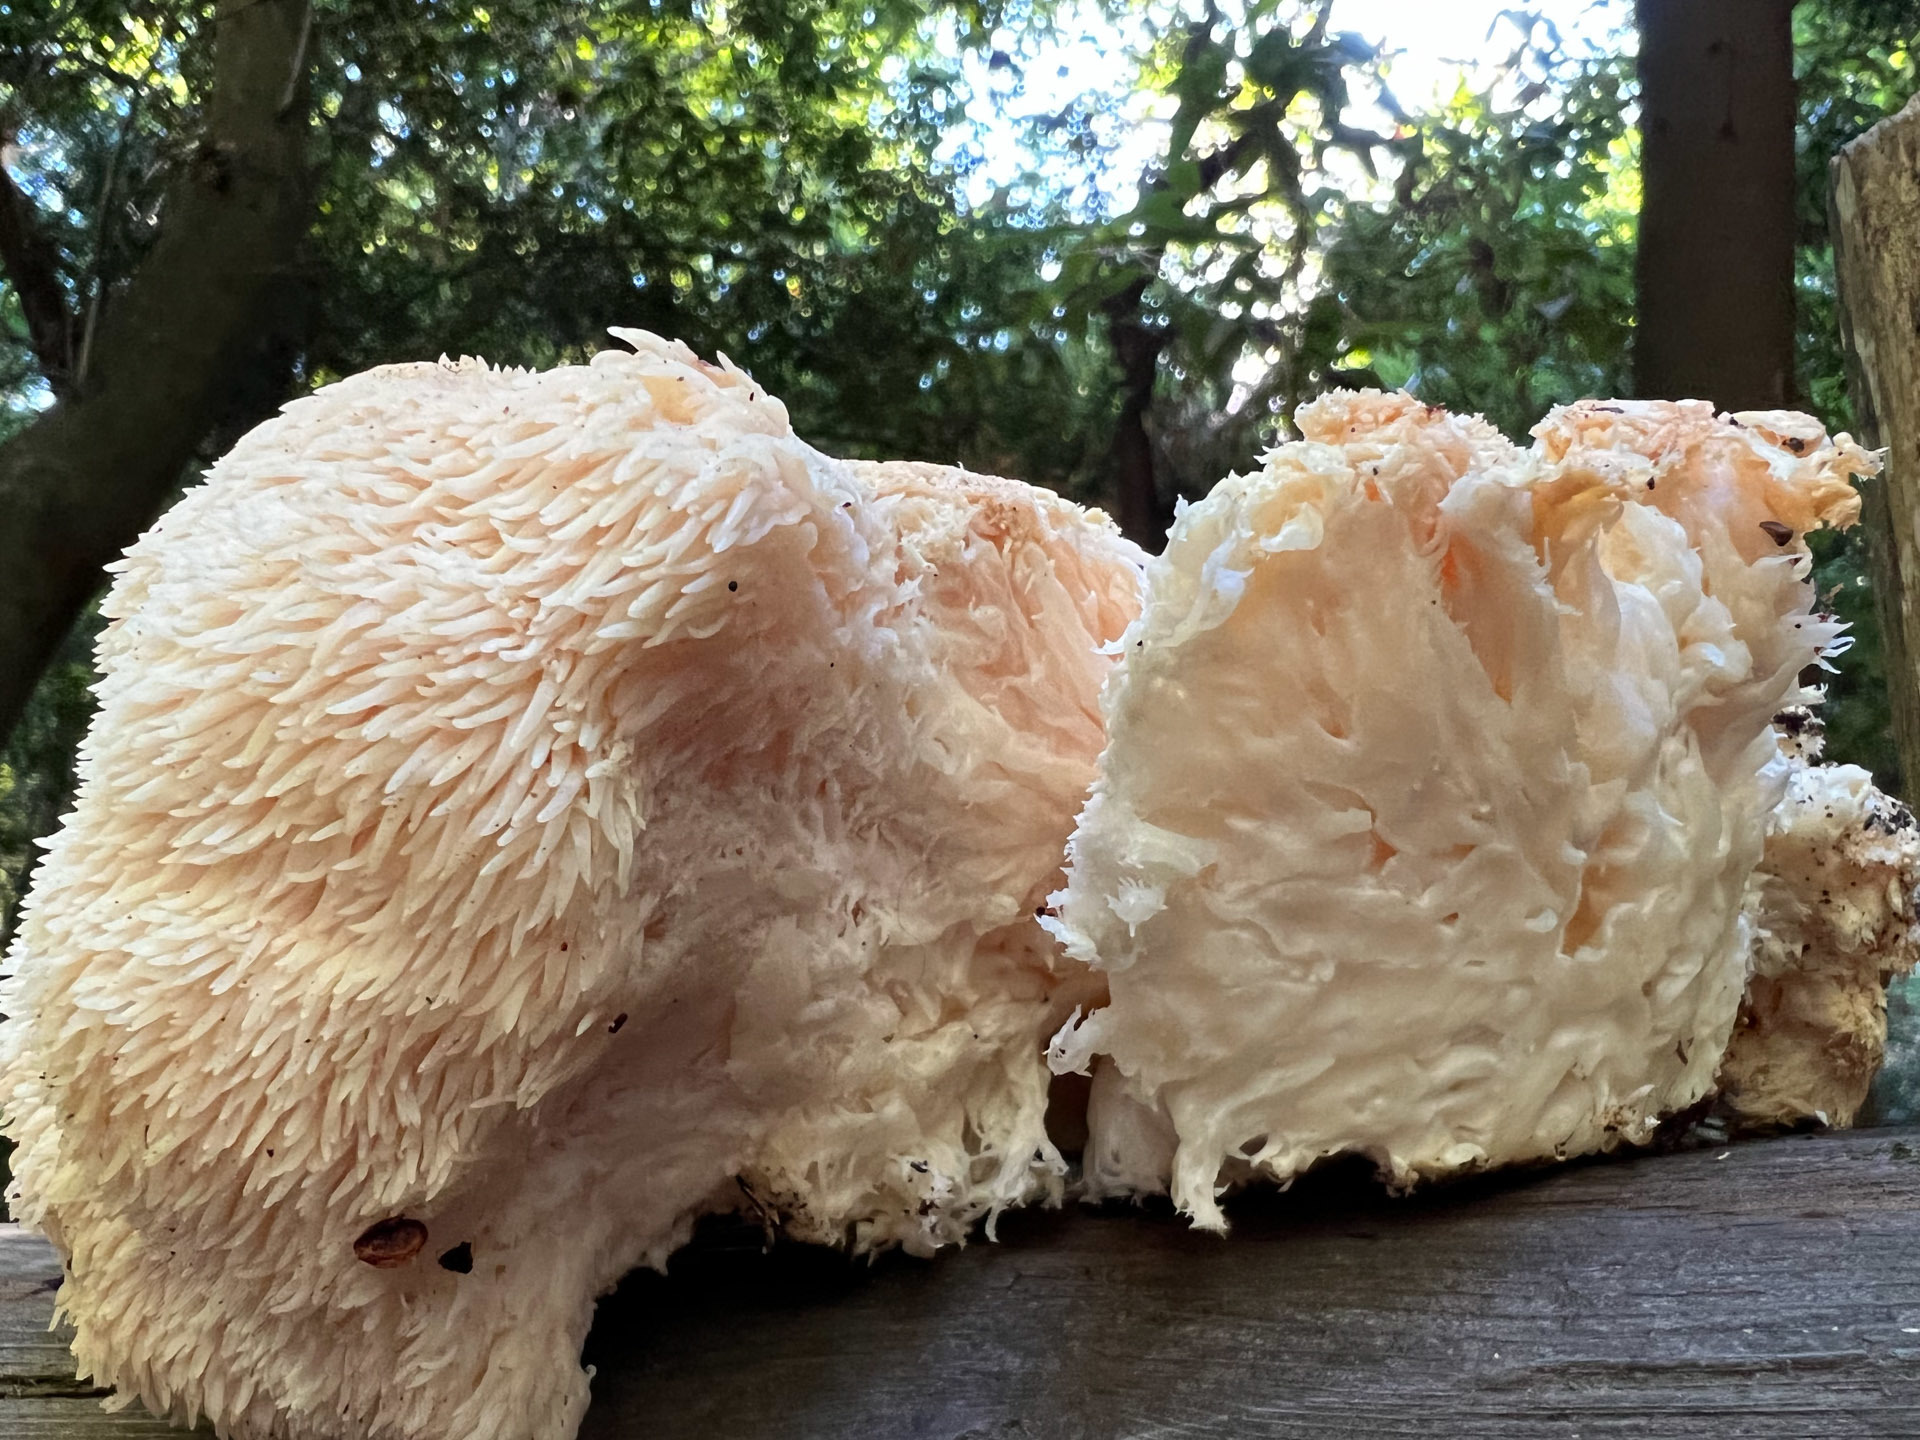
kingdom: Fungi
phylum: Basidiomycota
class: Agaricomycetes
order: Russulales
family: Hericiaceae
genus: Hericium
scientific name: Hericium erinaceus
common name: Bearded tooth
